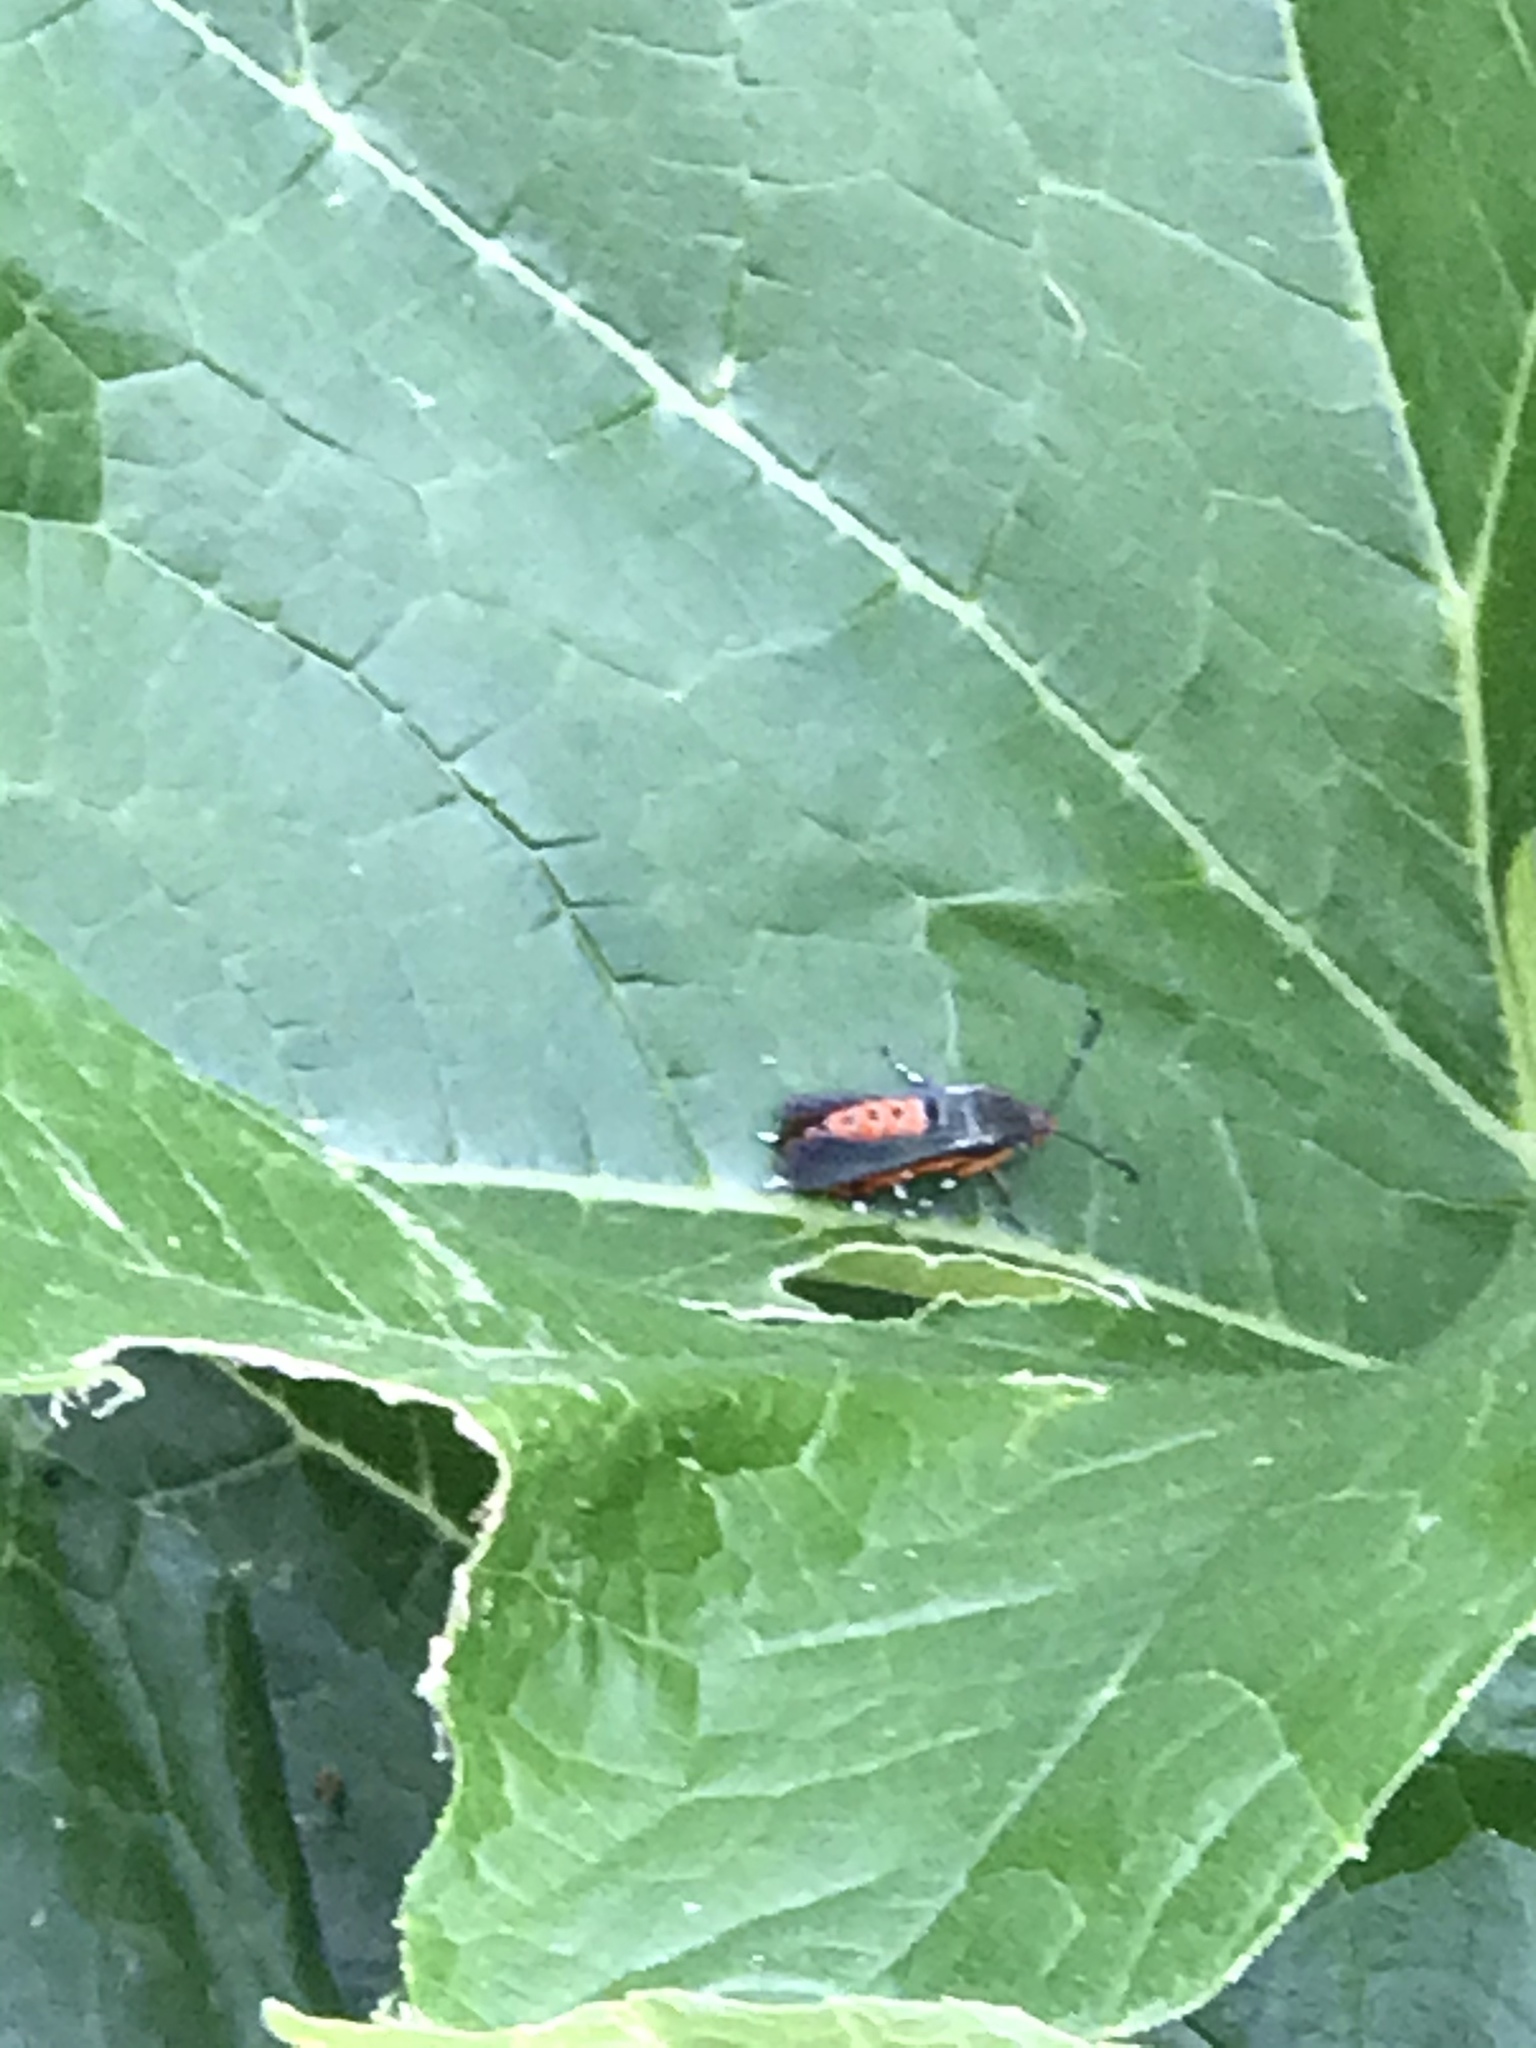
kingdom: Animalia
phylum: Arthropoda
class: Insecta
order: Lepidoptera
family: Sesiidae
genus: Eichlinia
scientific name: Eichlinia cucurbitae
